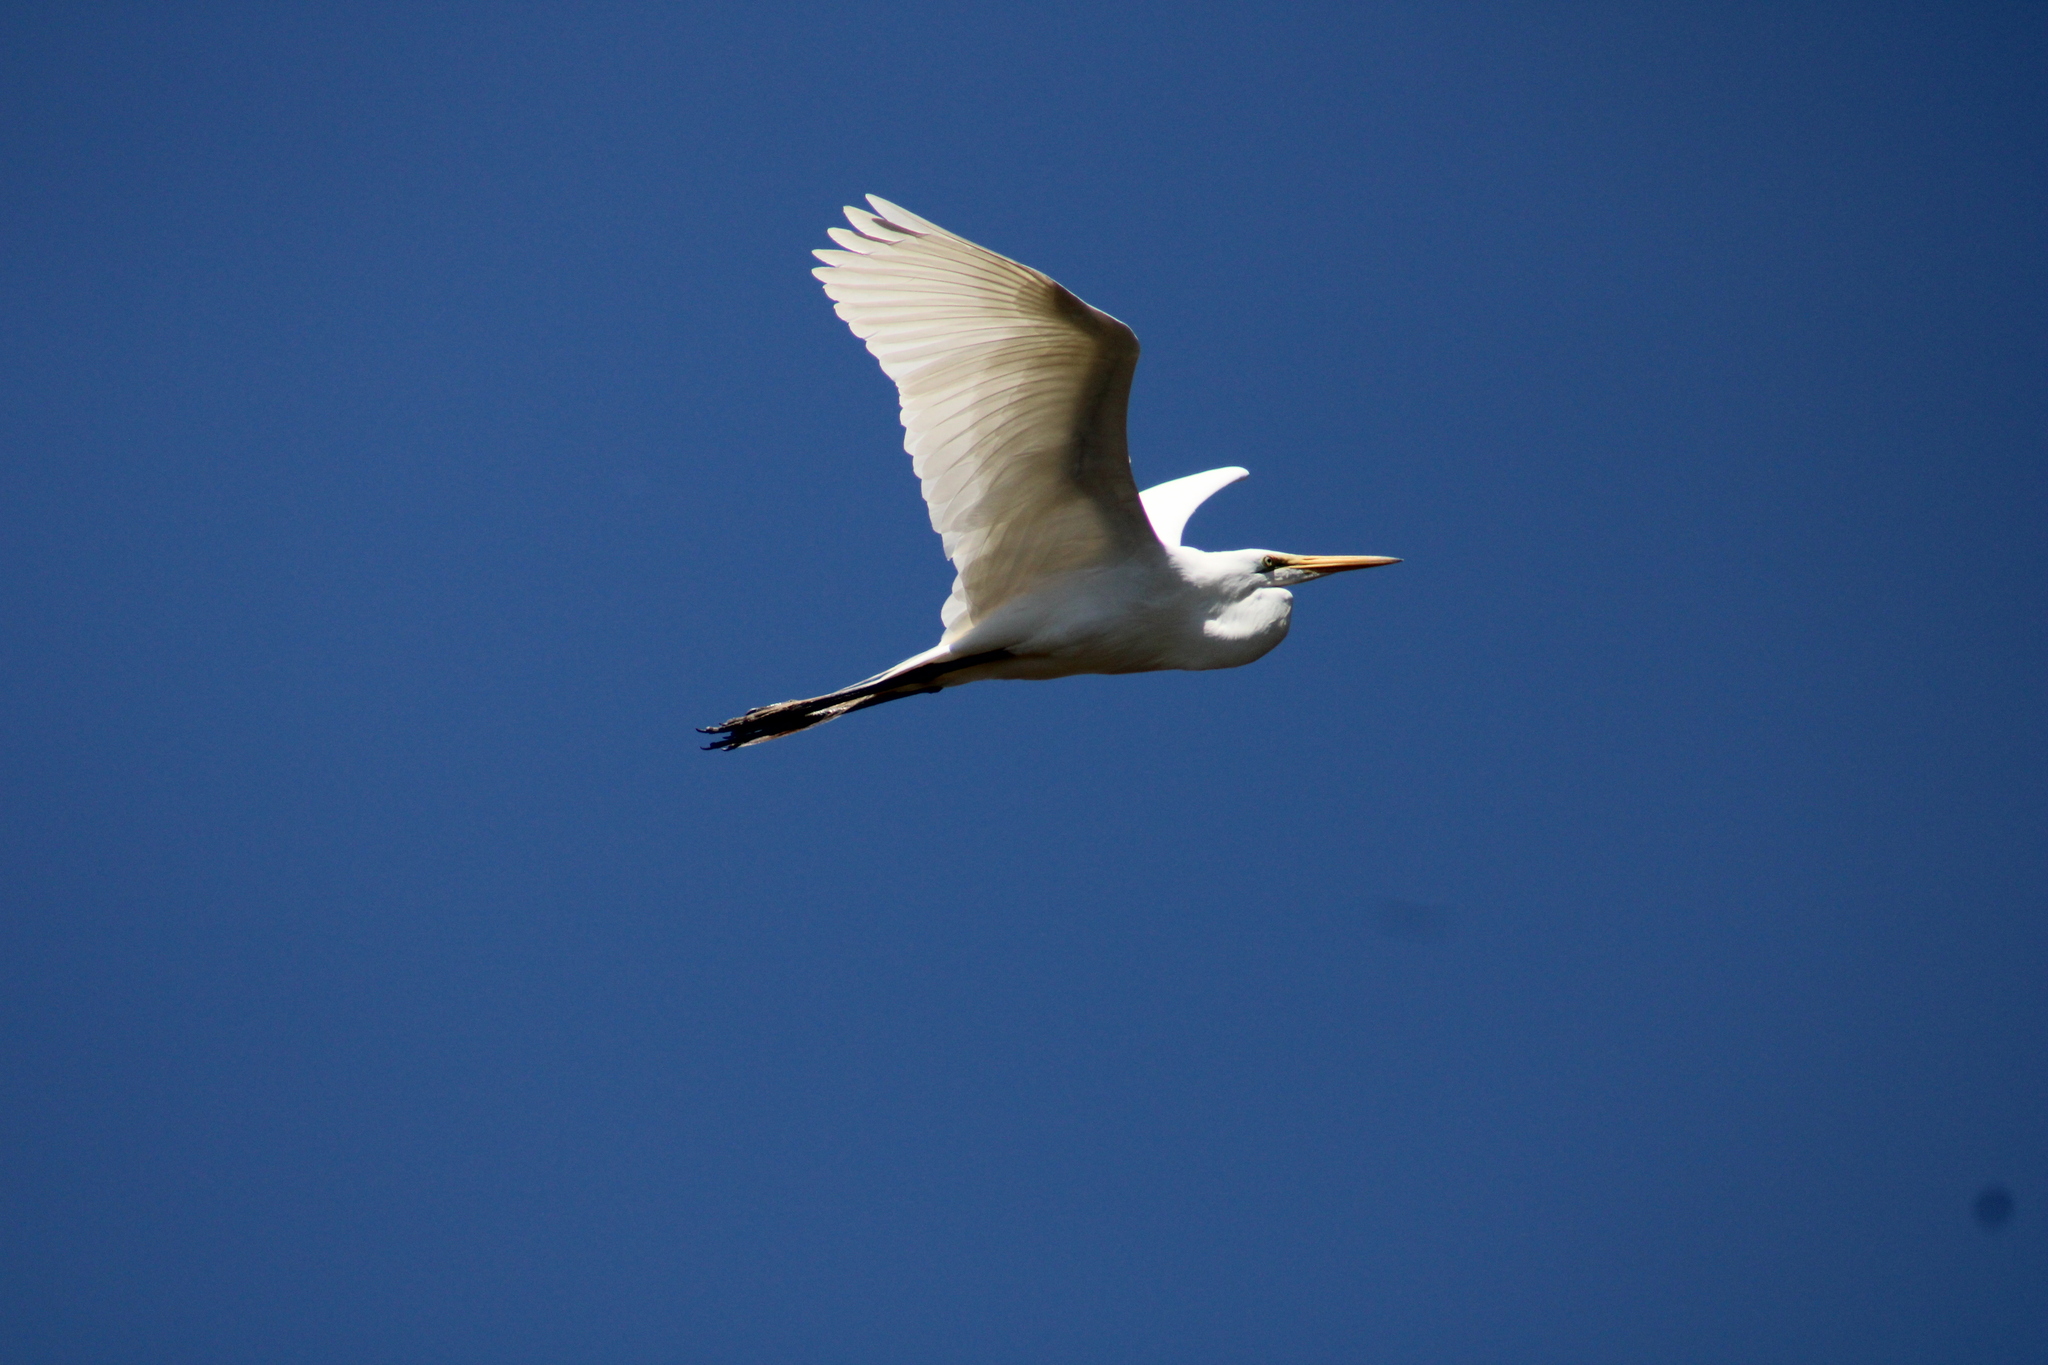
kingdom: Animalia
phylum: Chordata
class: Aves
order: Pelecaniformes
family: Ardeidae
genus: Ardea
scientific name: Ardea alba
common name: Great egret
